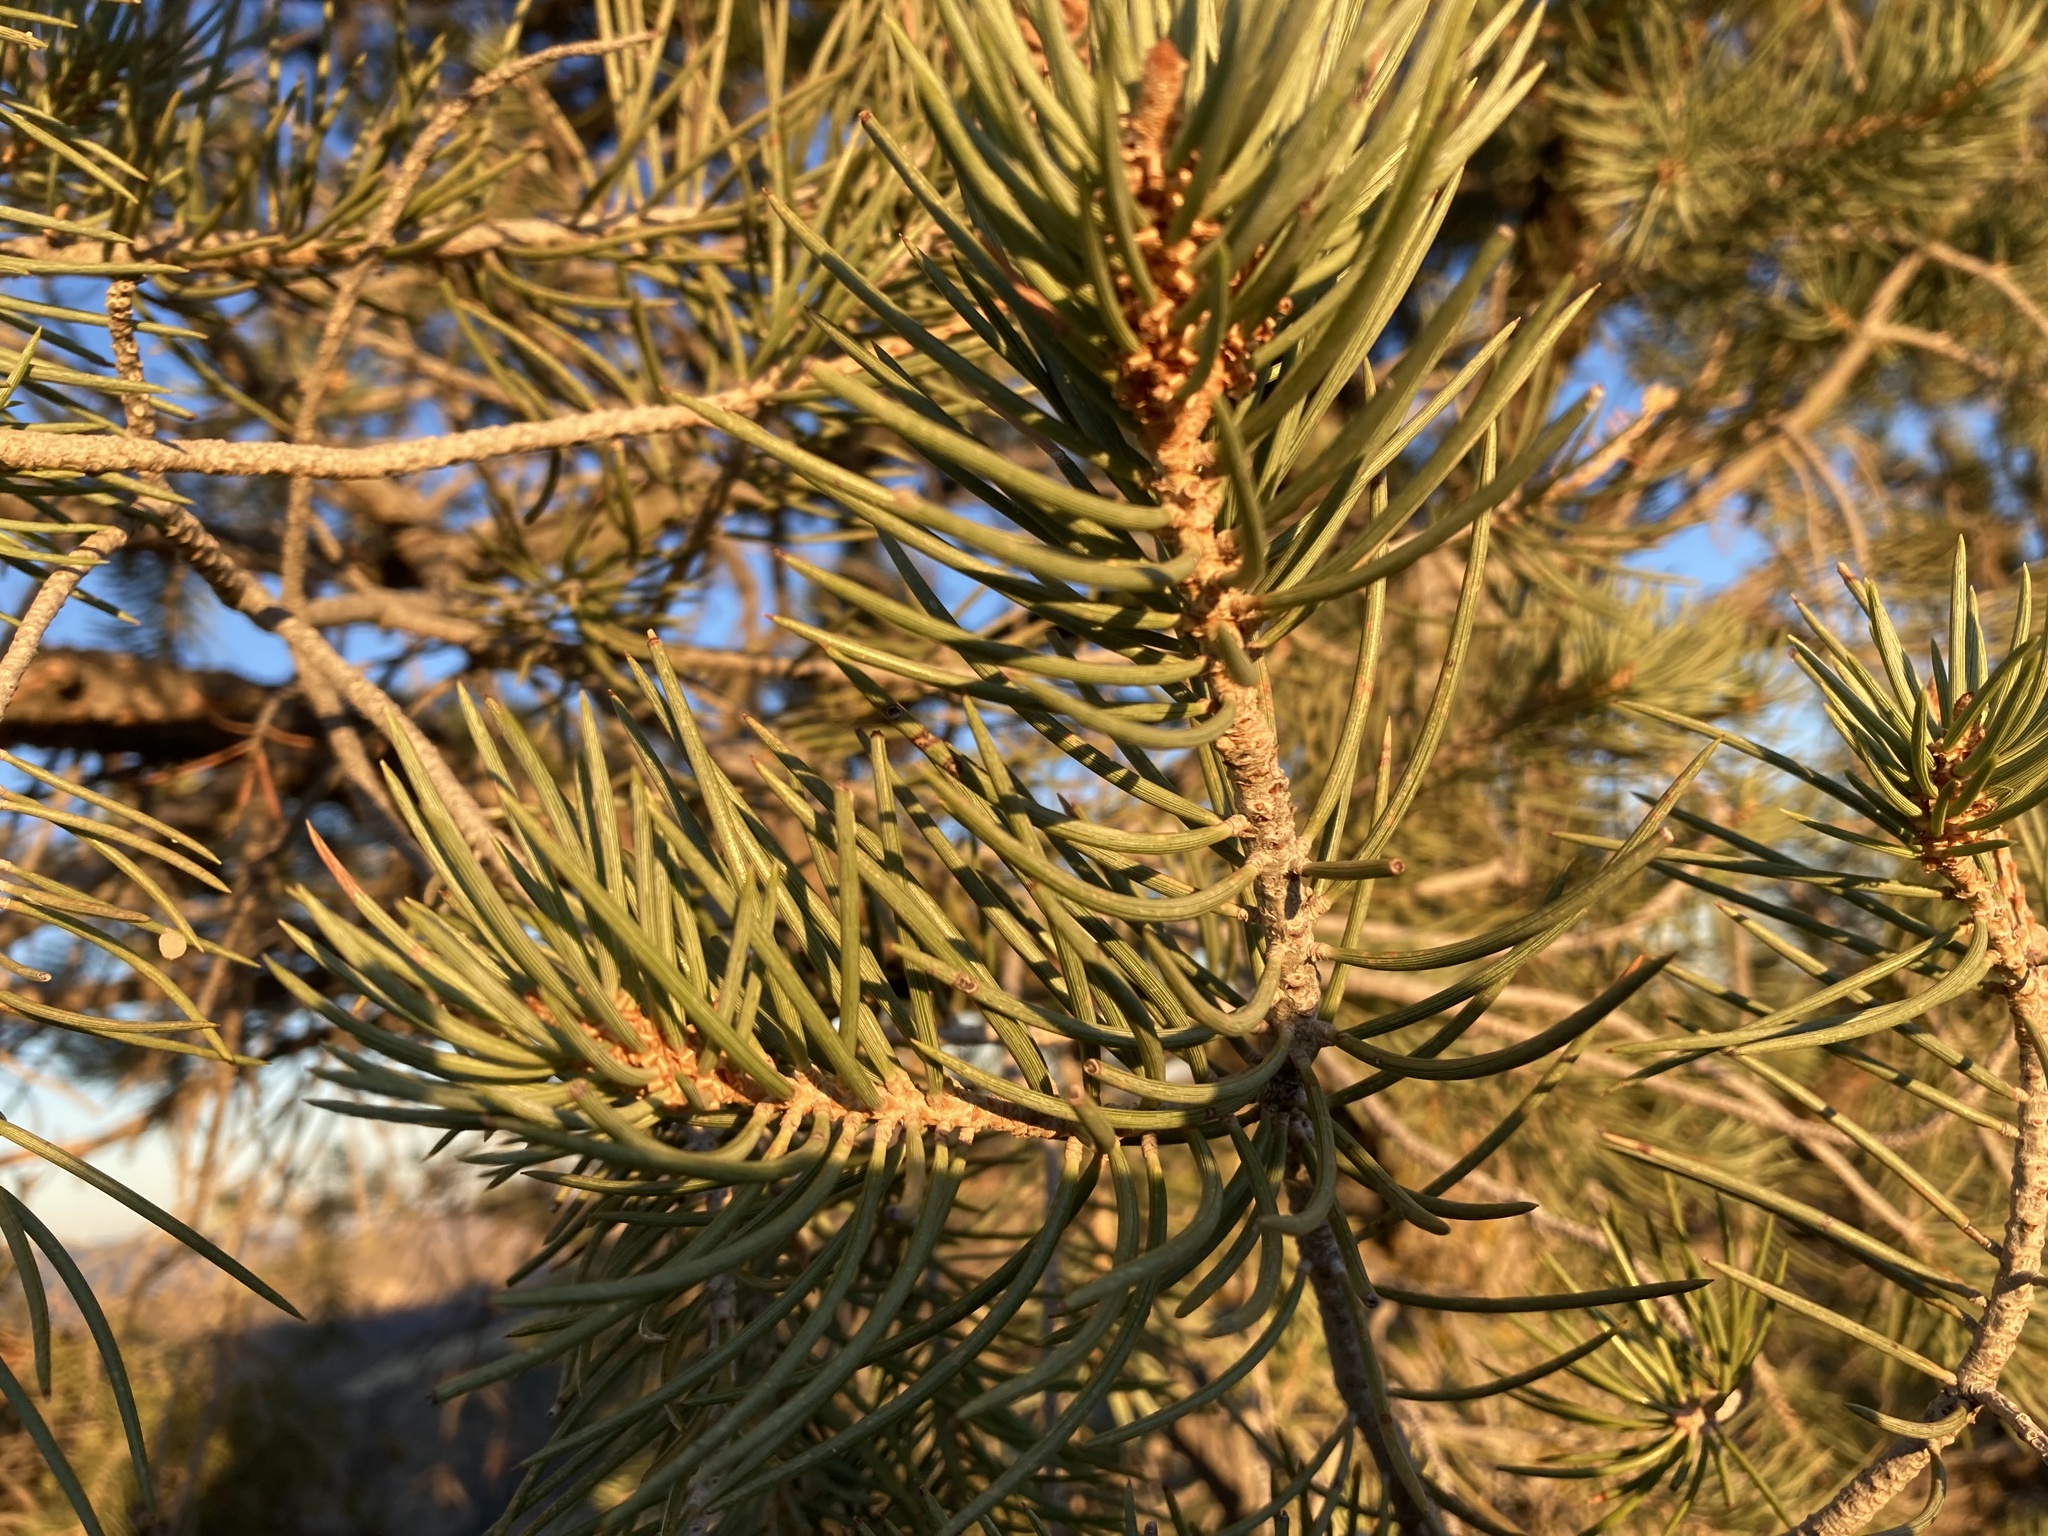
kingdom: Plantae
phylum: Tracheophyta
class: Pinopsida
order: Pinales
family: Pinaceae
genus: Pinus
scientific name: Pinus monophylla
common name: One-leaved nut pine
